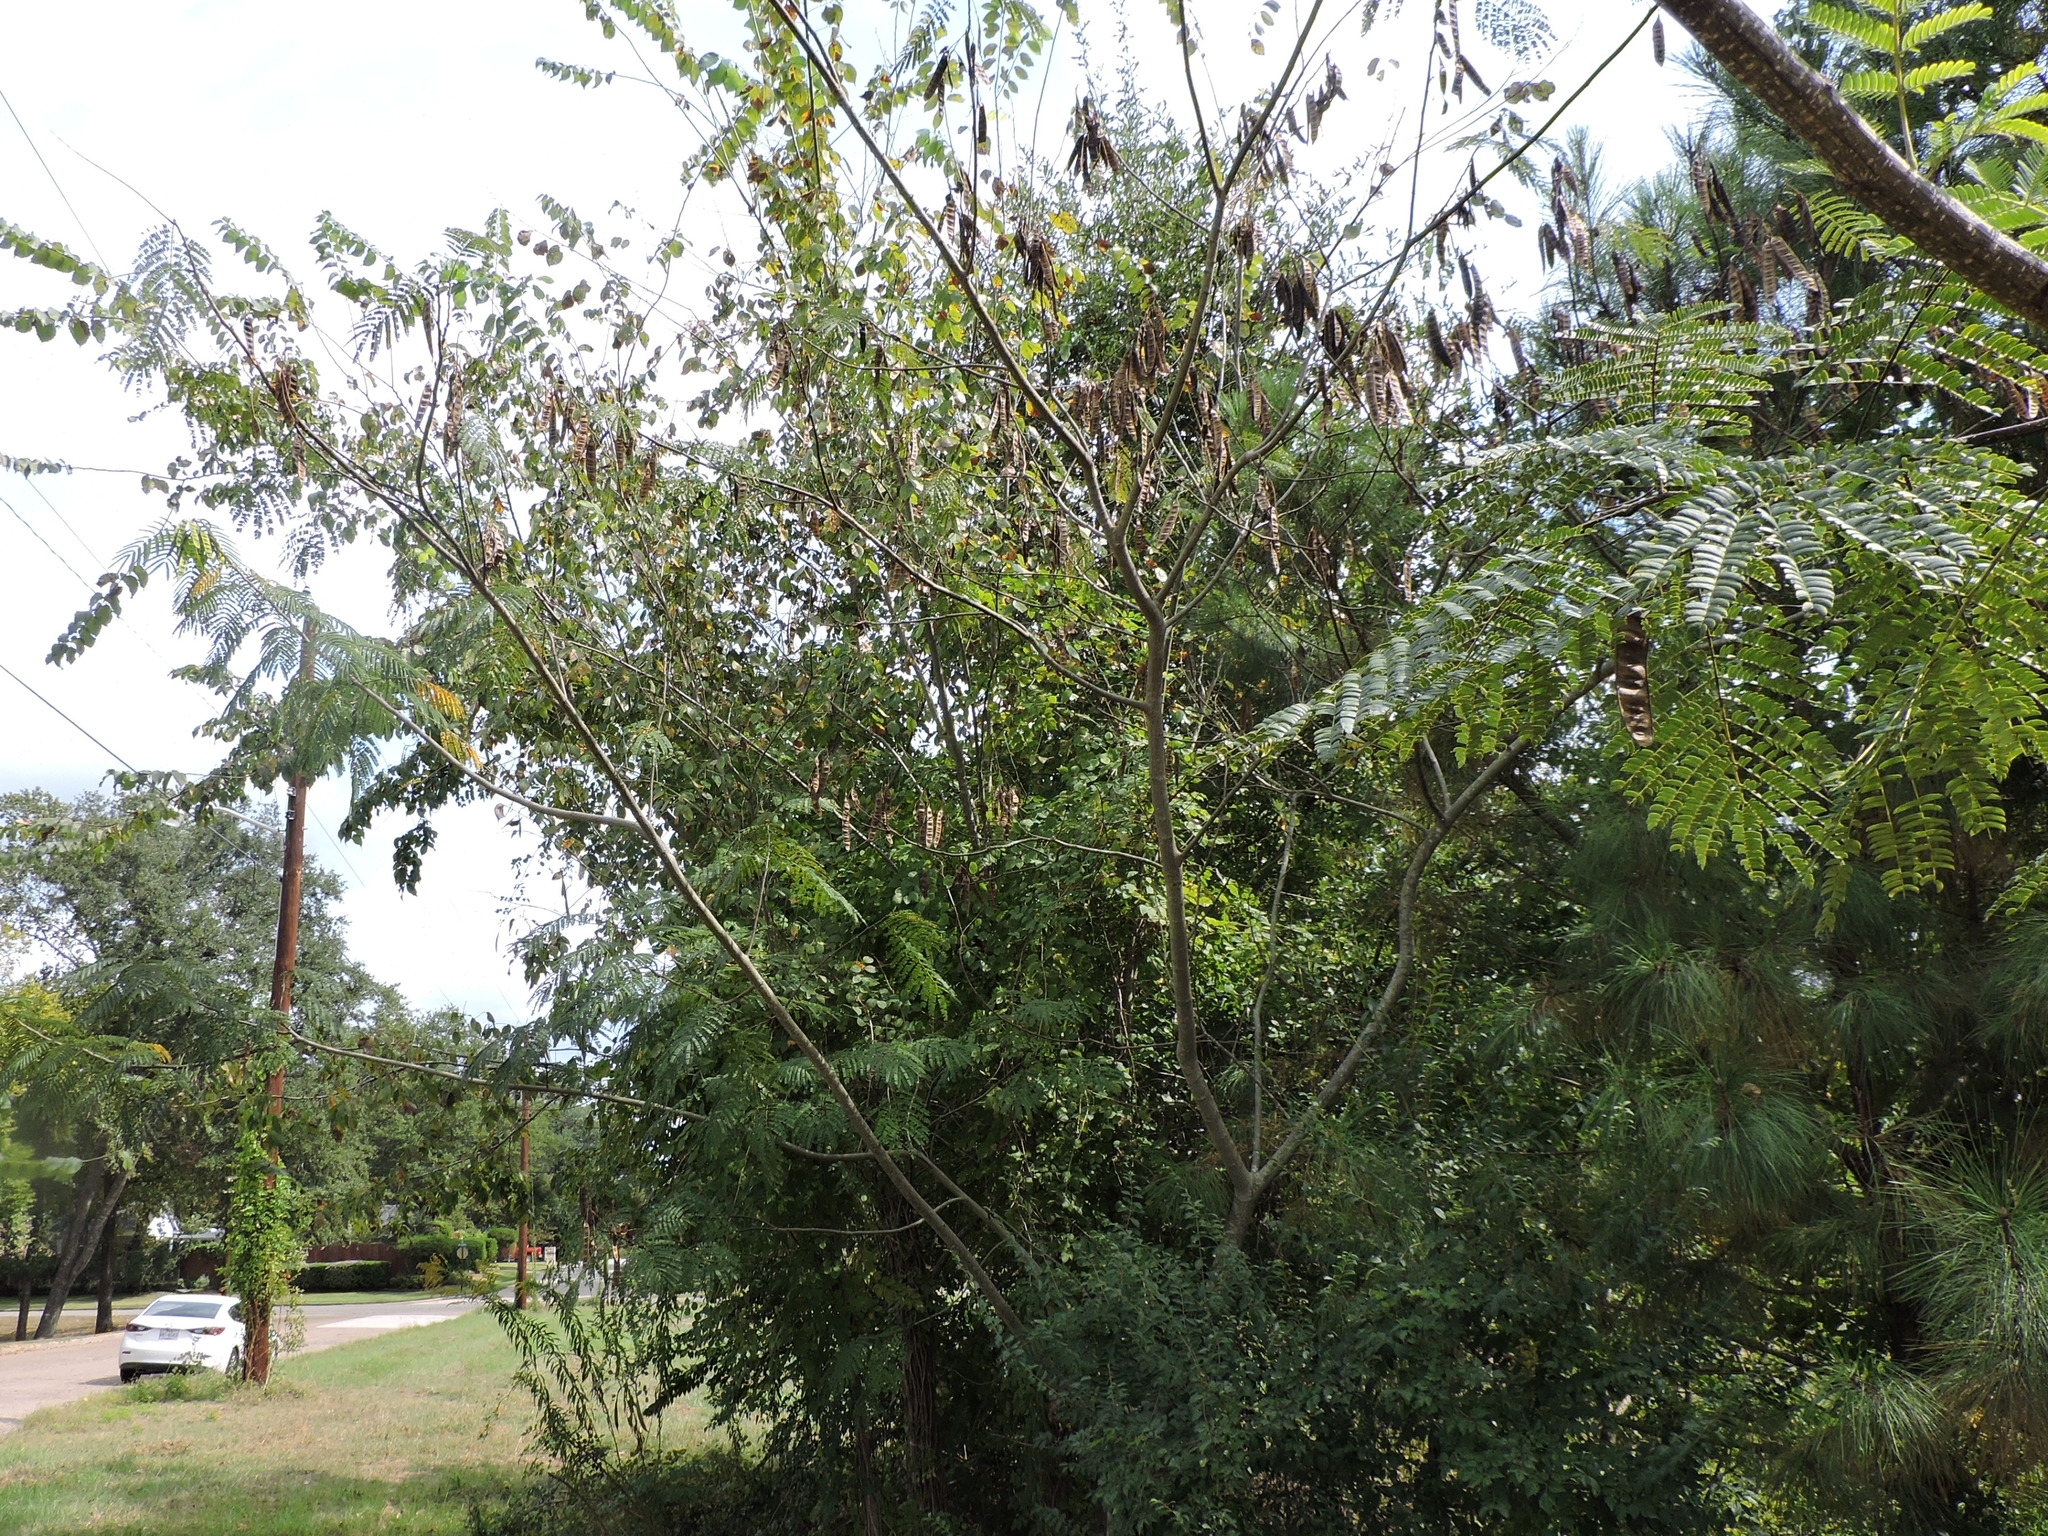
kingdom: Plantae
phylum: Tracheophyta
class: Magnoliopsida
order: Fabales
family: Fabaceae
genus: Albizia
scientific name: Albizia julibrissin
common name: Silktree
